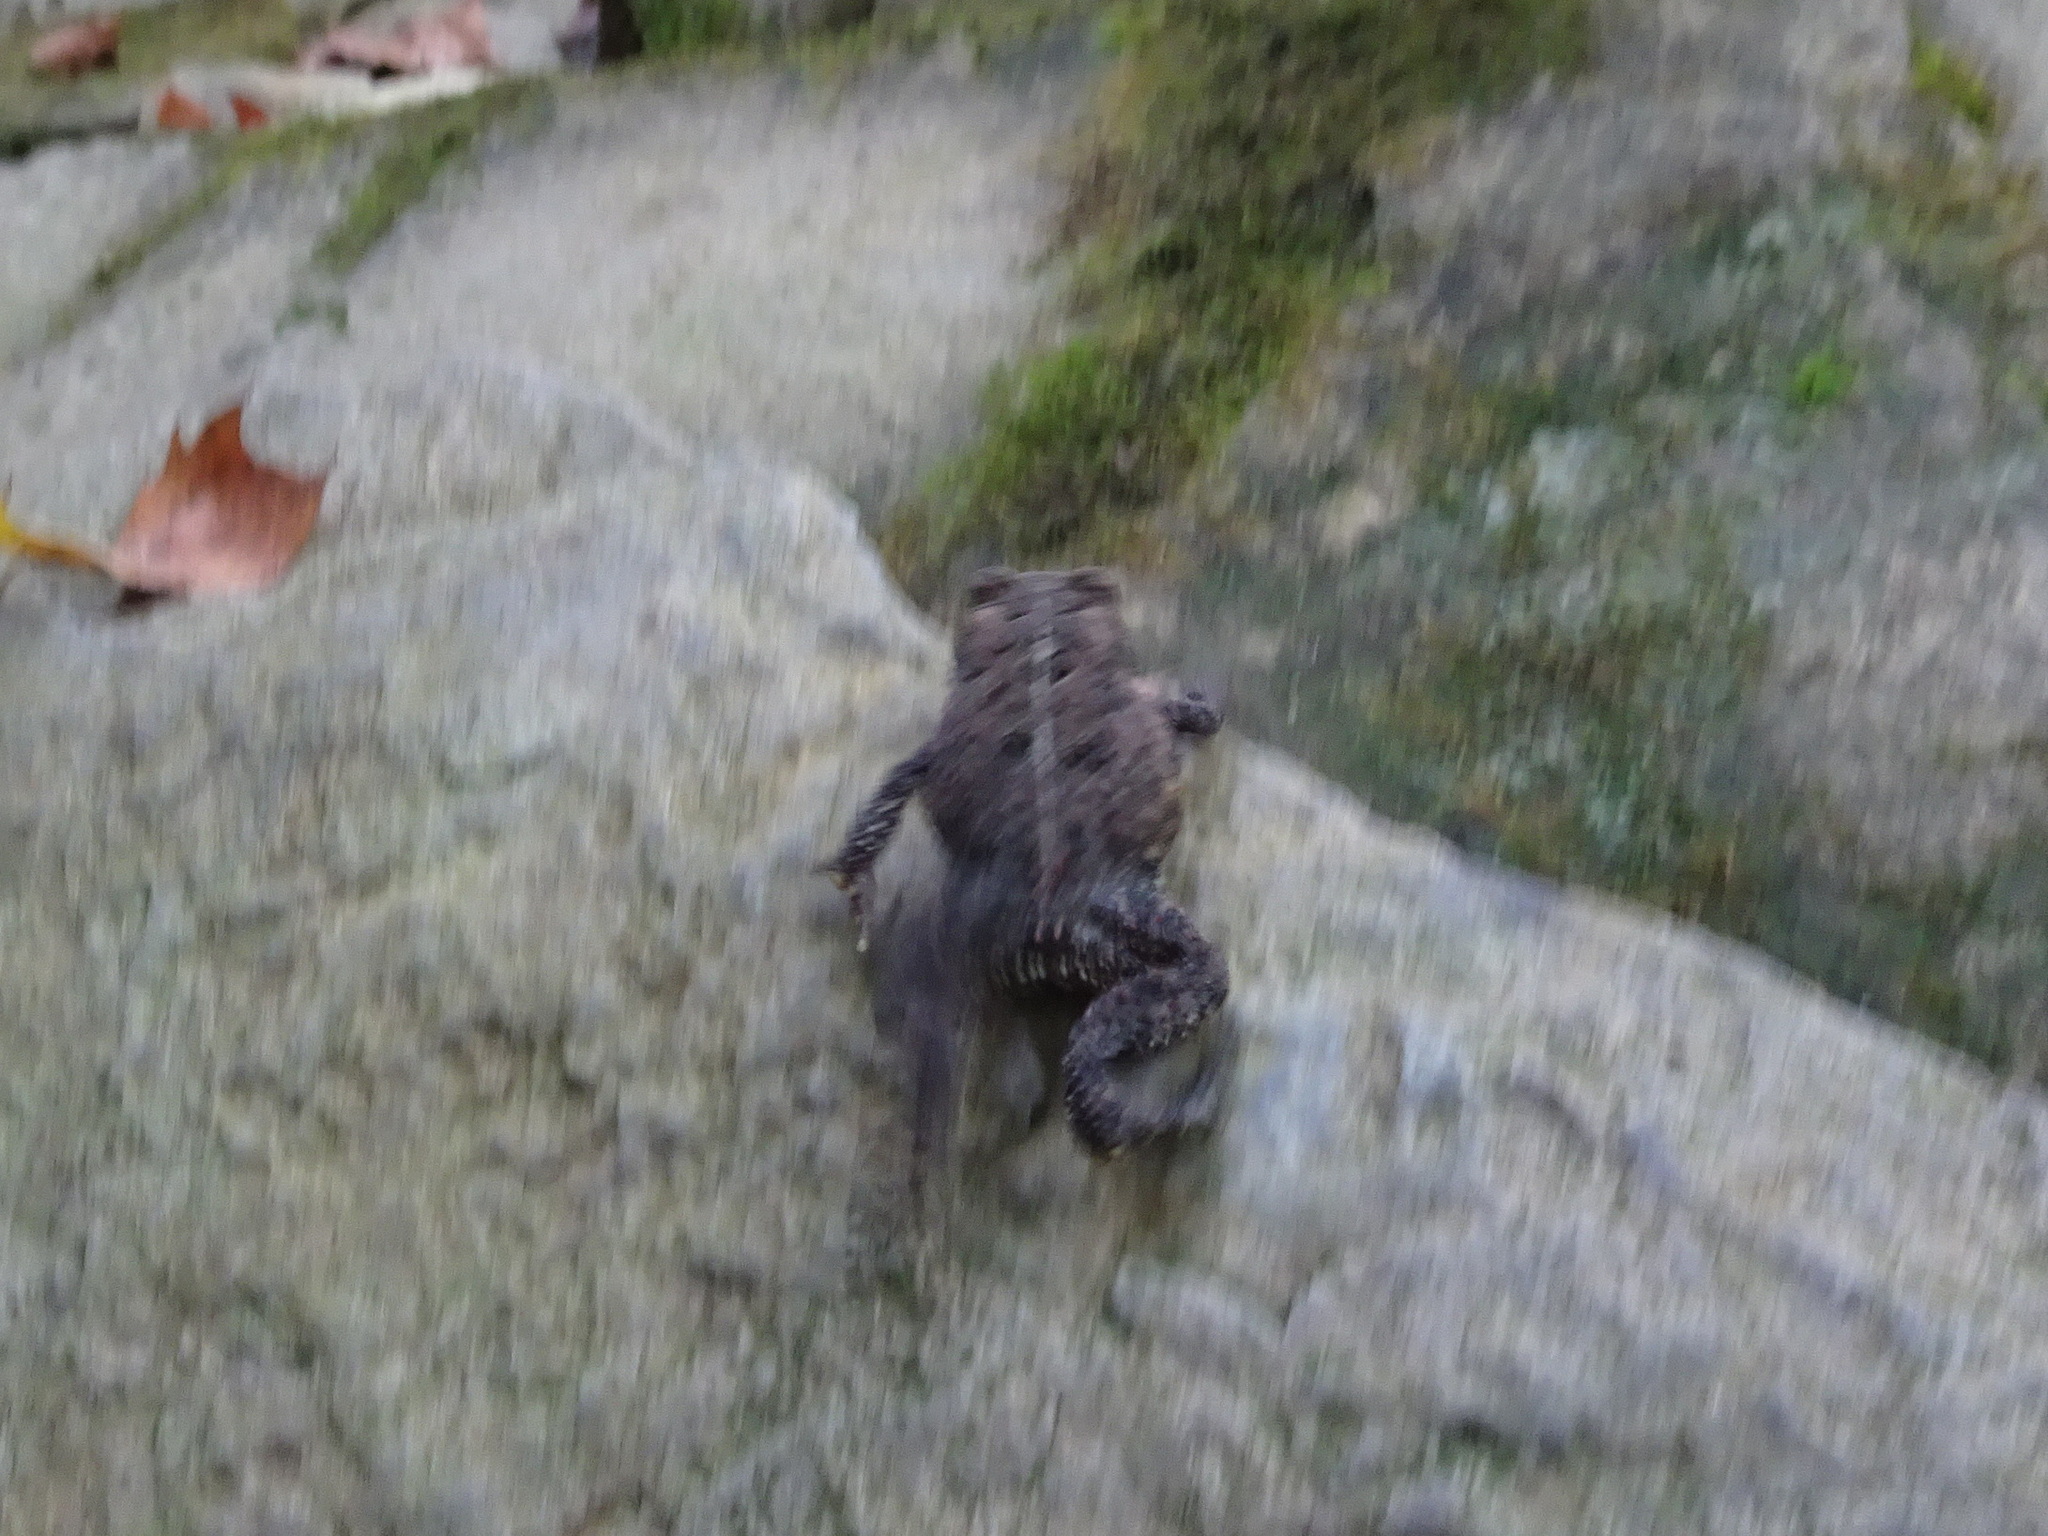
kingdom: Animalia
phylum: Chordata
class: Amphibia
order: Anura
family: Bufonidae
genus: Anaxyrus
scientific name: Anaxyrus americanus
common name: American toad
